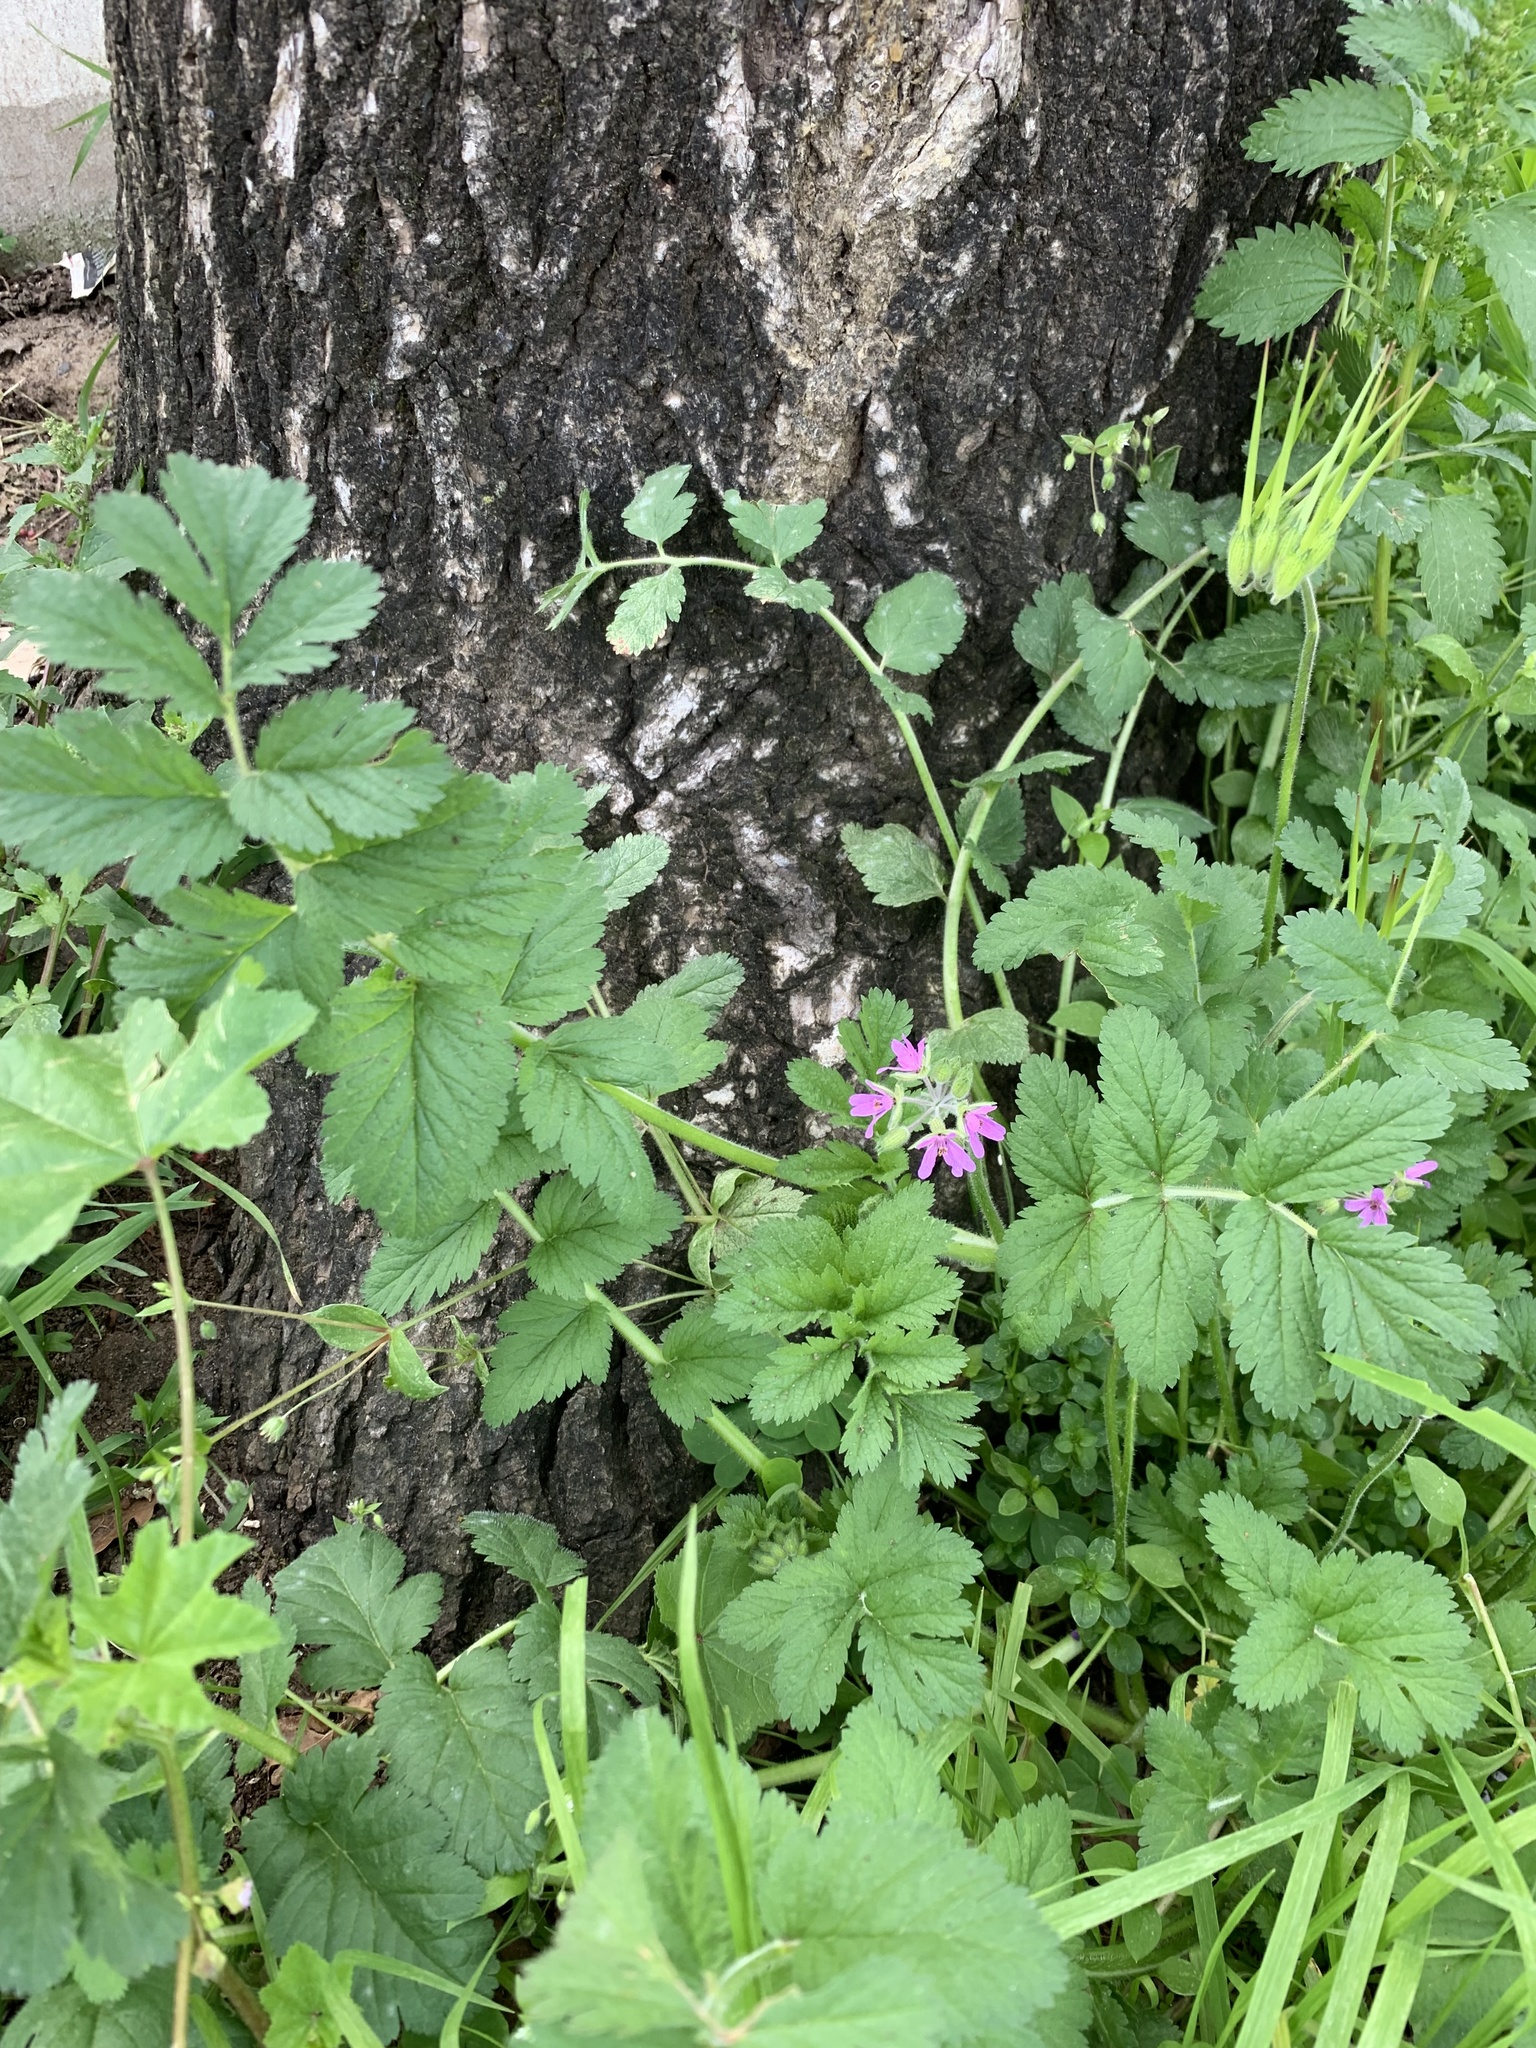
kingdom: Plantae
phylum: Tracheophyta
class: Magnoliopsida
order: Geraniales
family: Geraniaceae
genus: Erodium
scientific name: Erodium moschatum
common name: Musk stork's-bill
